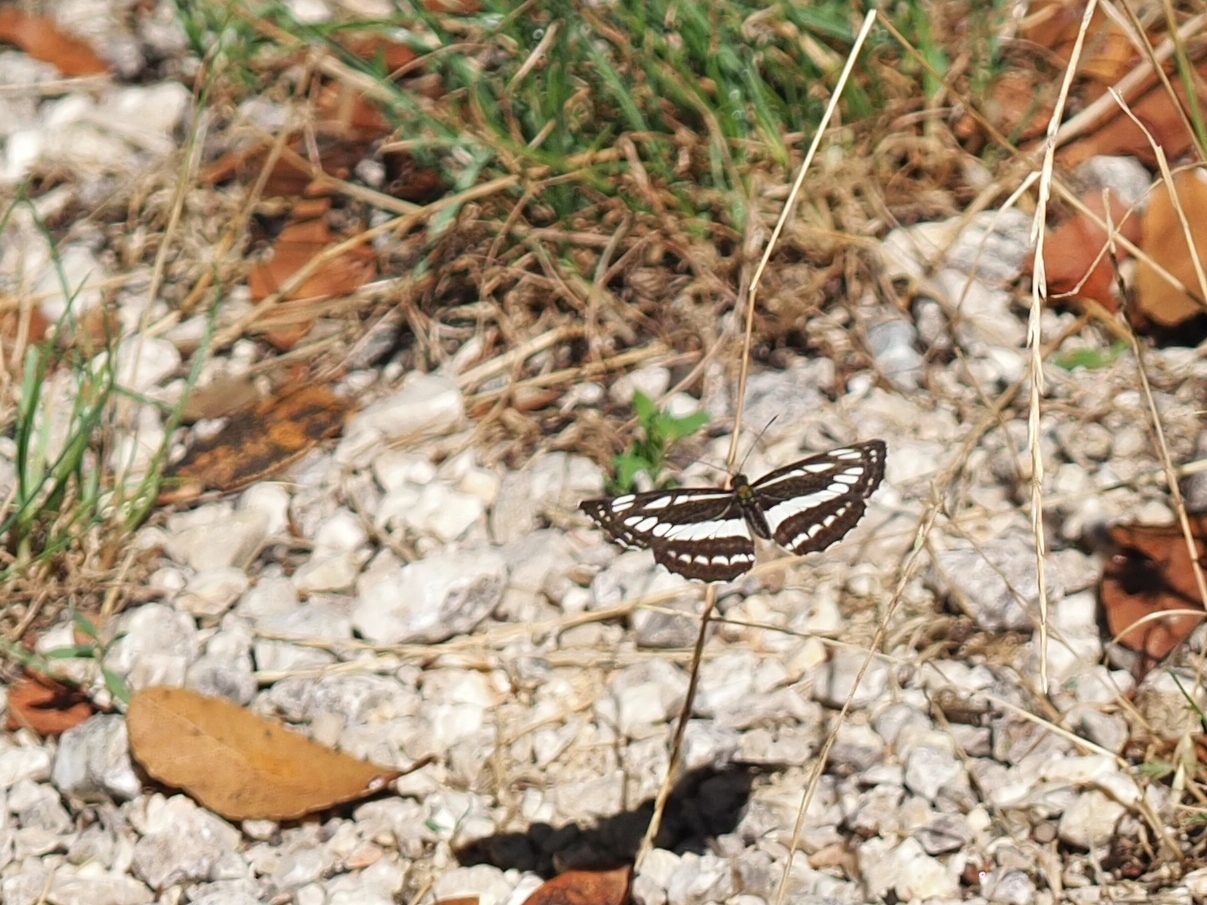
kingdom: Animalia
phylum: Arthropoda
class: Insecta
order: Lepidoptera
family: Nymphalidae
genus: Neptis
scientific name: Neptis sappho
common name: Common glider
